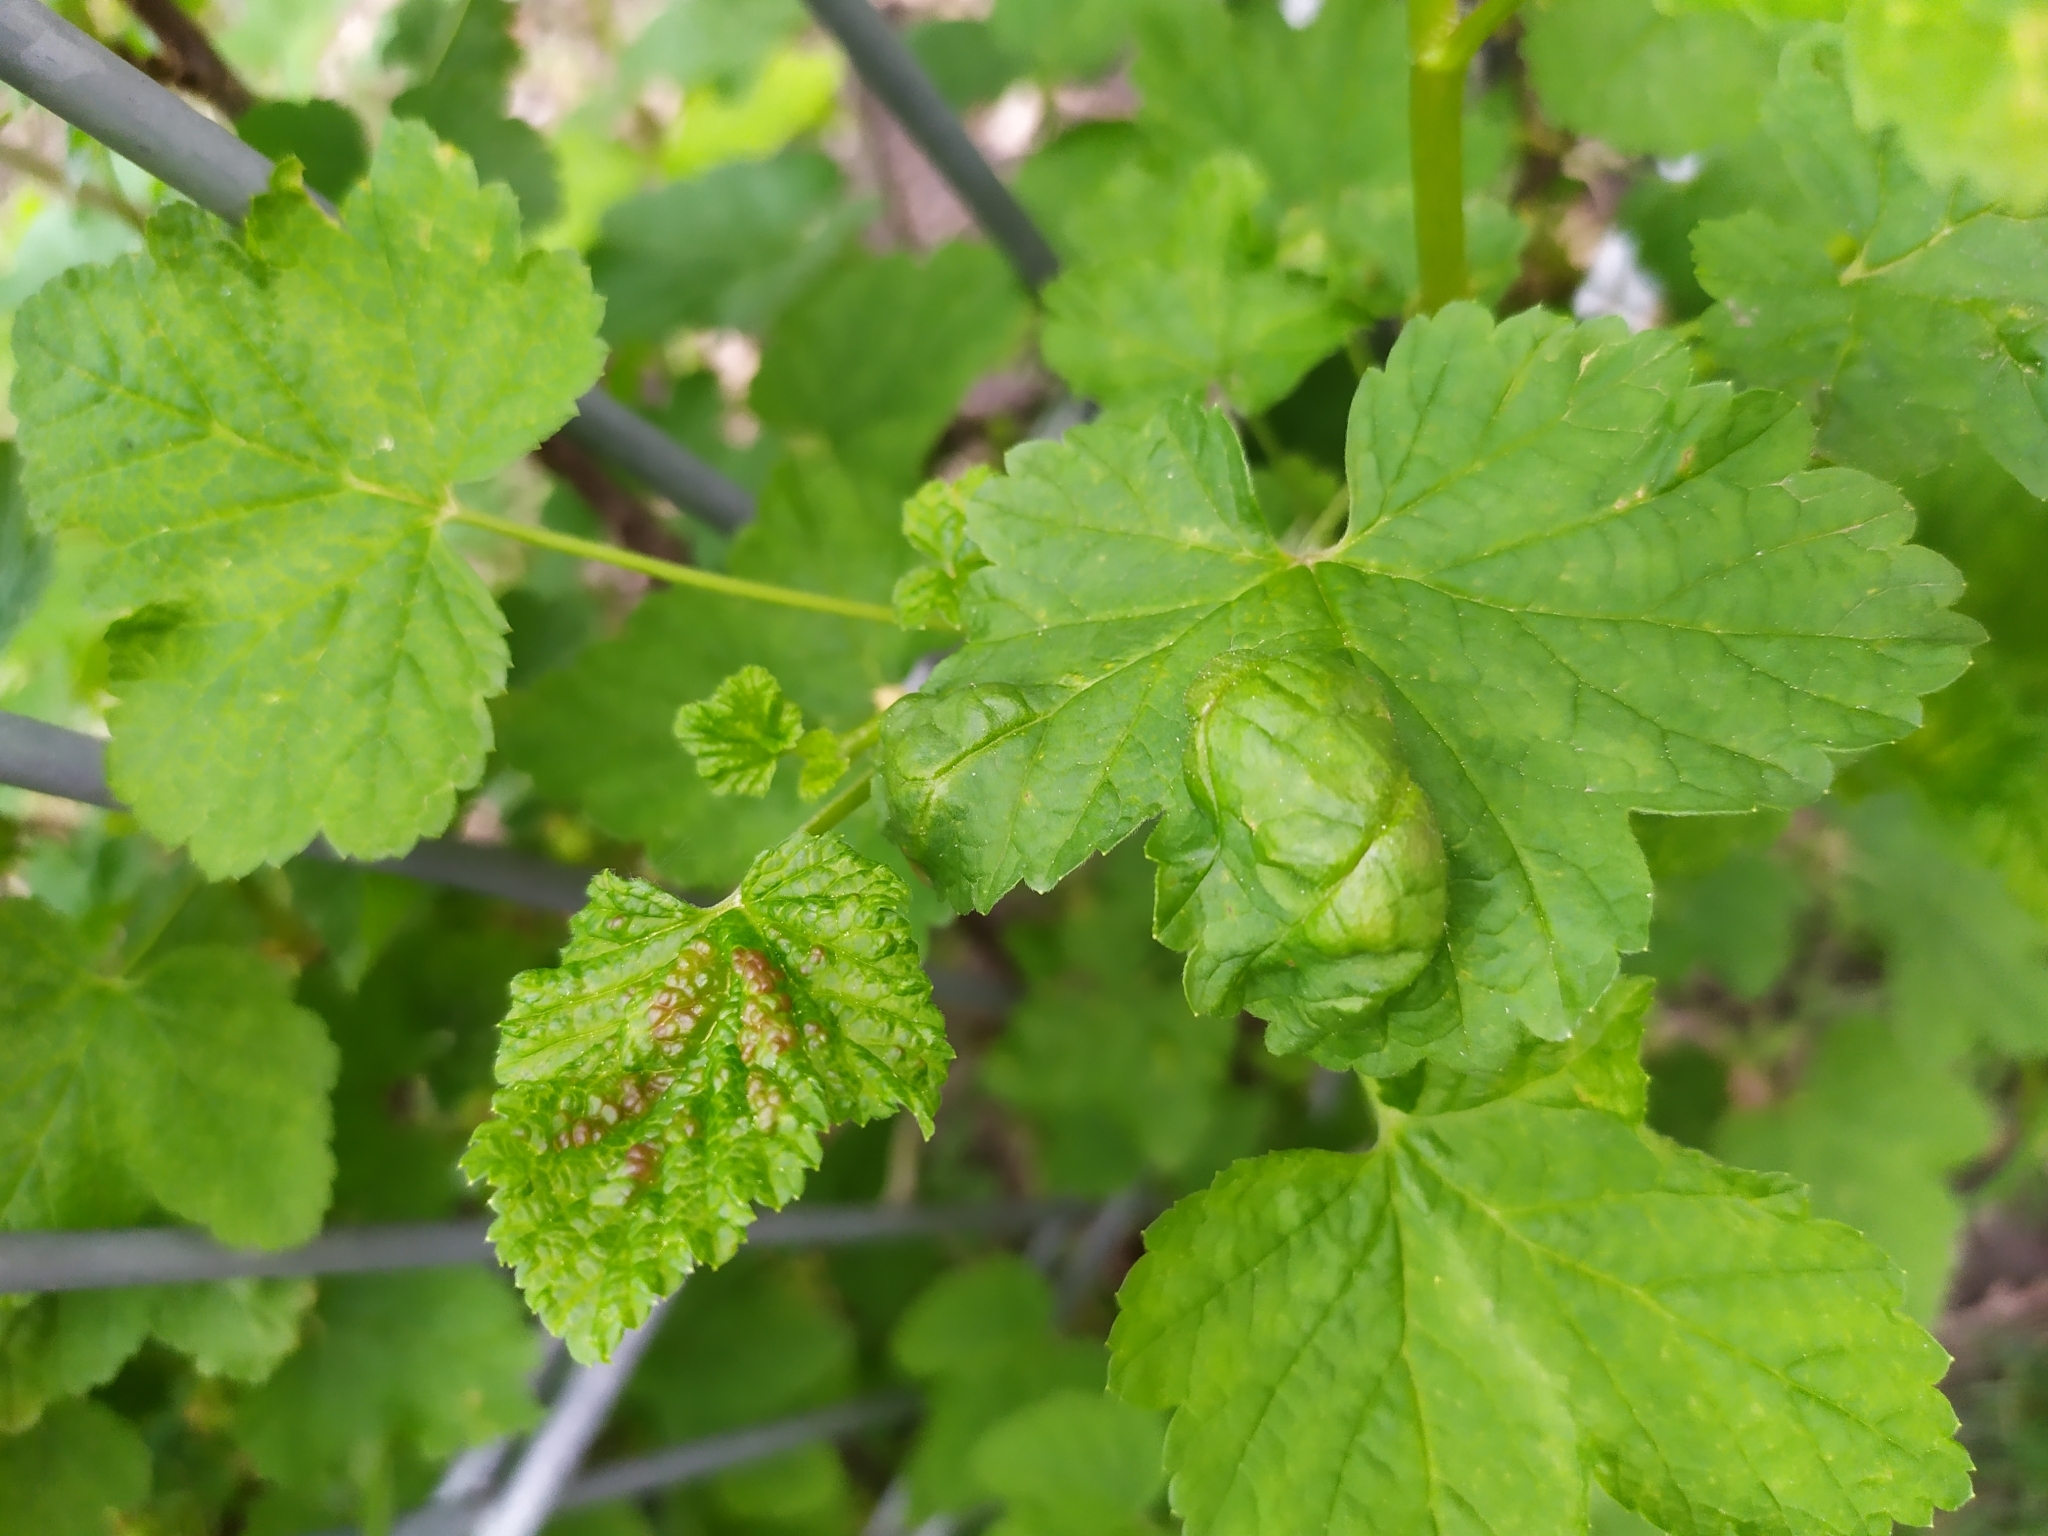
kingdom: Animalia
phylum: Arthropoda
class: Insecta
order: Hemiptera
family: Aphididae
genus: Cryptomyzus
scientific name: Cryptomyzus ribis
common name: Currant aphid
